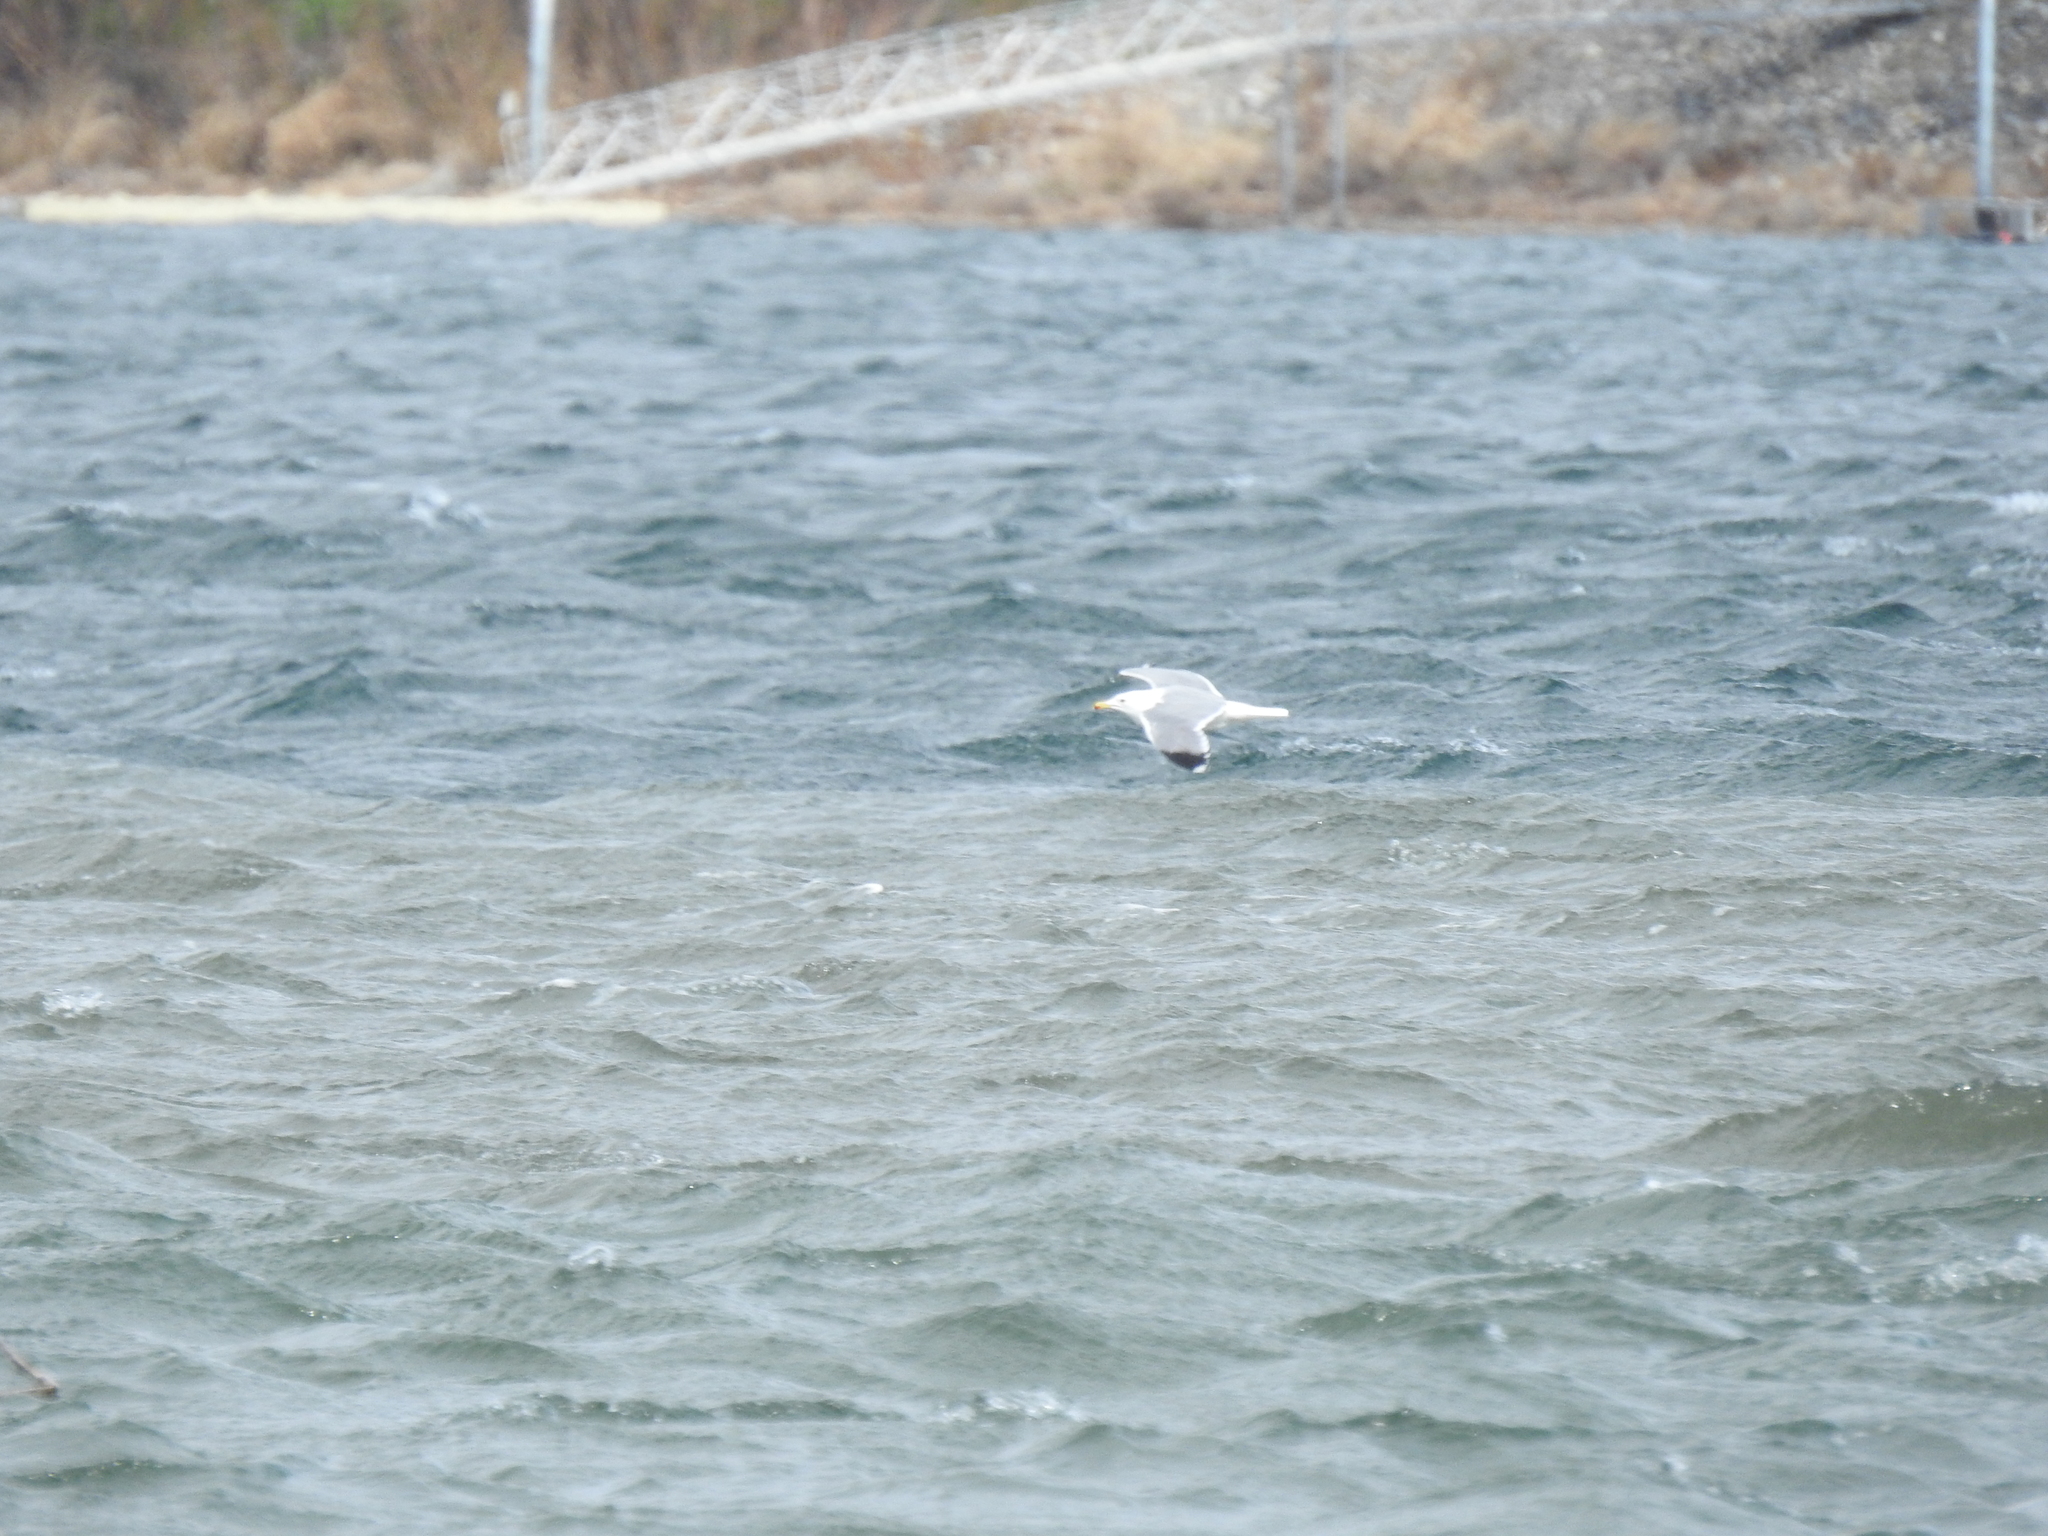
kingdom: Animalia
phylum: Chordata
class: Aves
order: Charadriiformes
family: Laridae
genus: Larus
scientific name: Larus delawarensis
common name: Ring-billed gull
